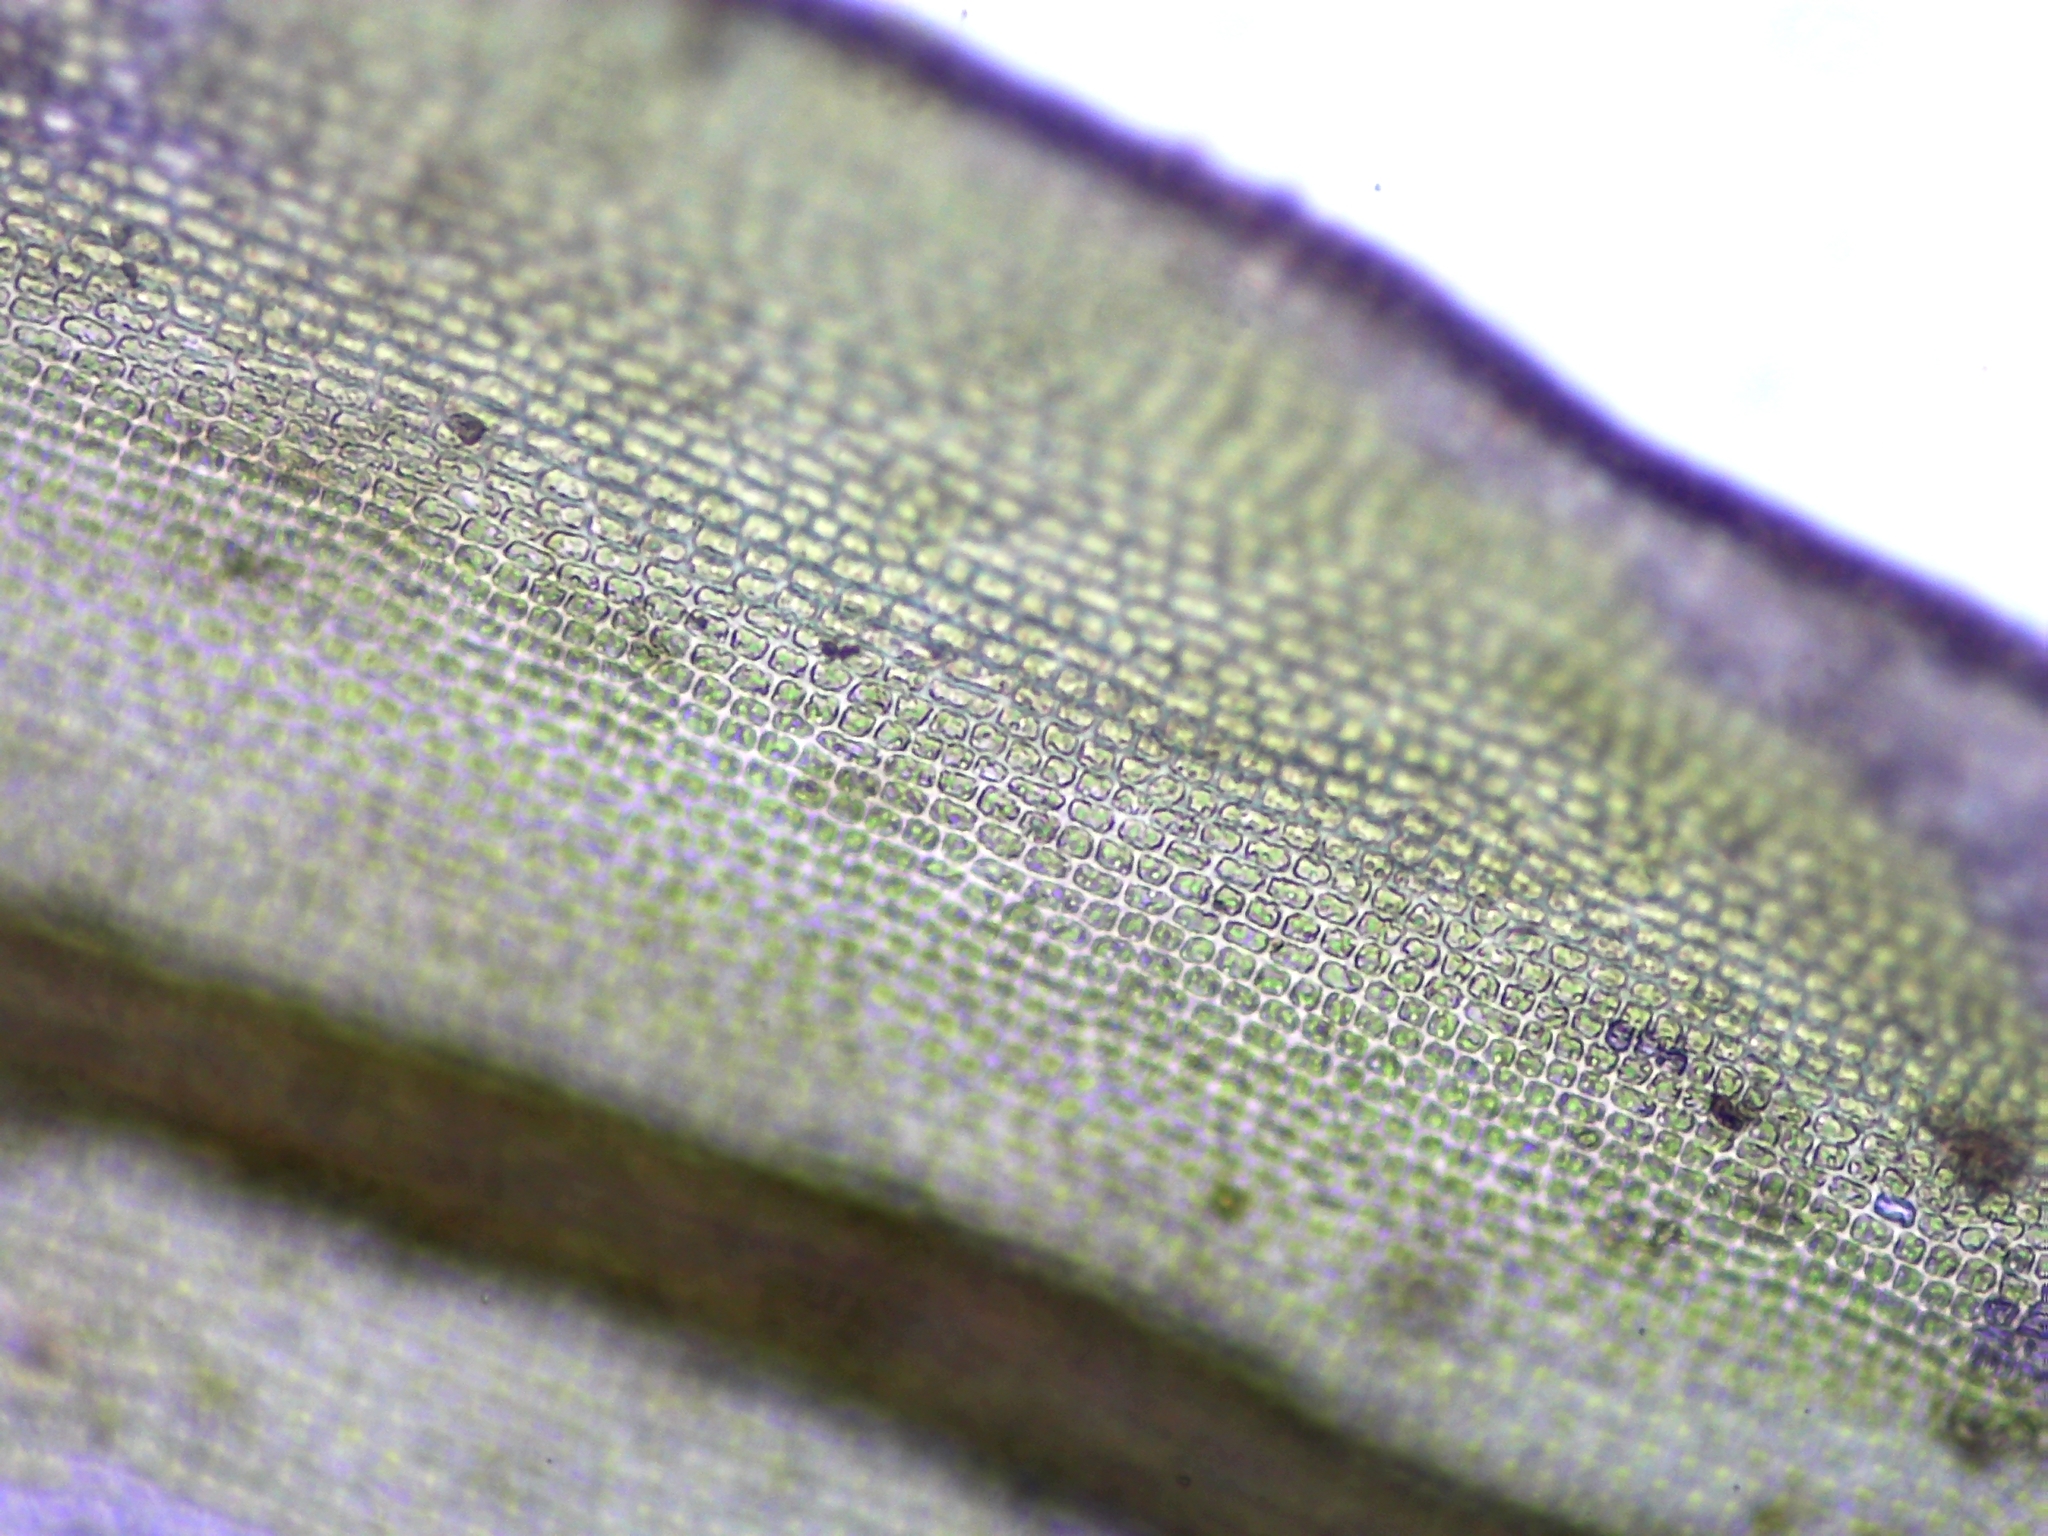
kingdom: Plantae
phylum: Bryophyta
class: Bryopsida
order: Grimmiales
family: Grimmiaceae
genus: Schistidium
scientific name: Schistidium apocarpum
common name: Radiate bloom moss
